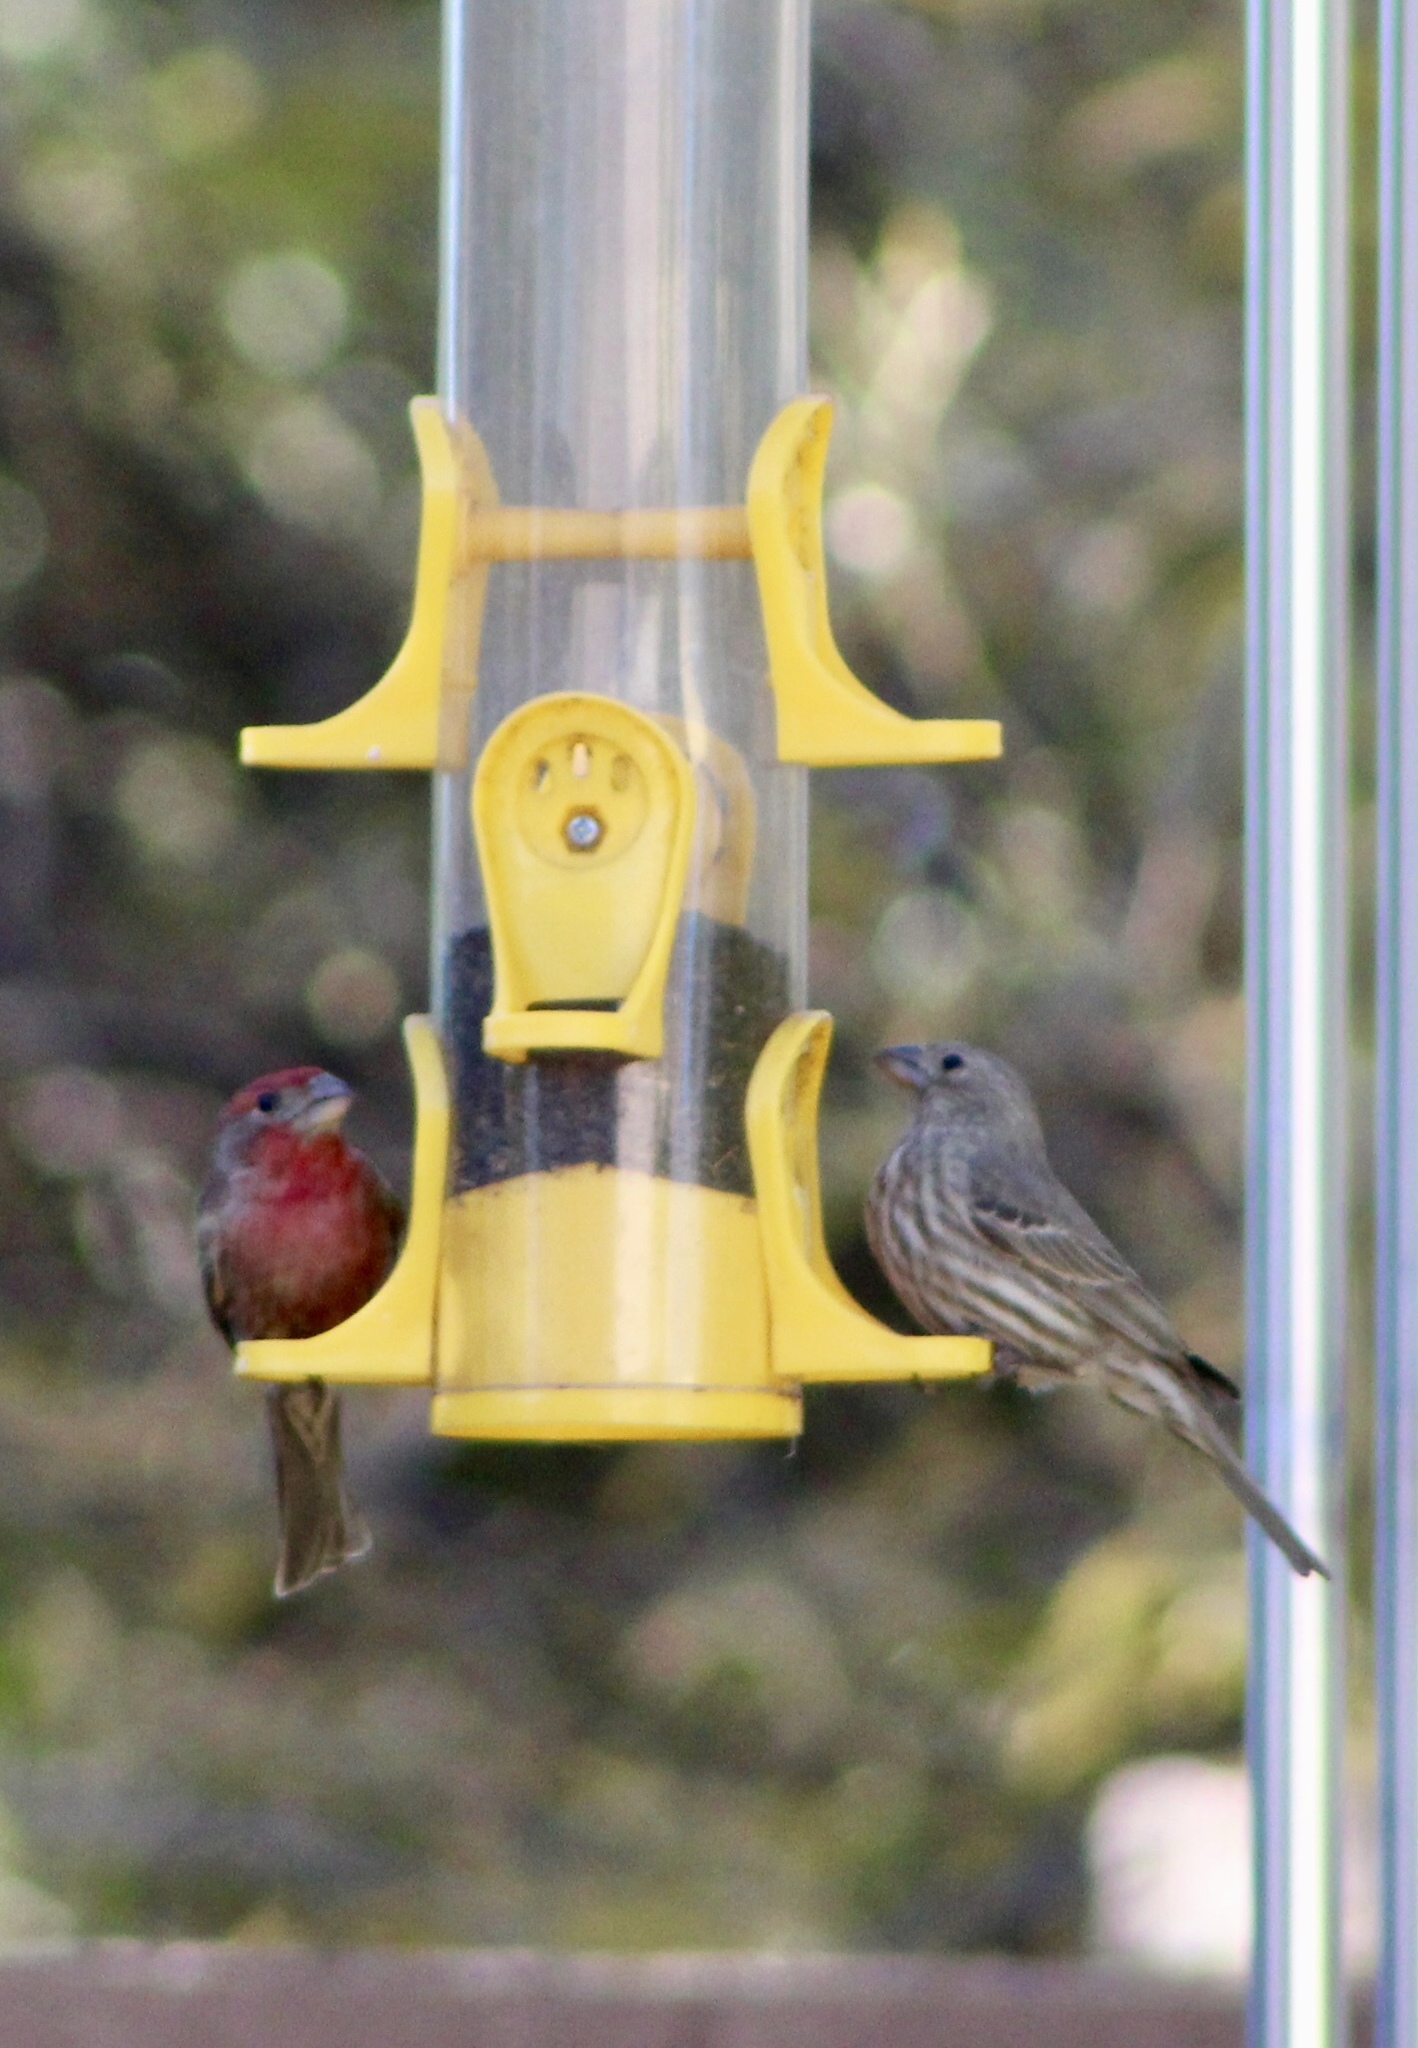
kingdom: Animalia
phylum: Chordata
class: Aves
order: Passeriformes
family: Fringillidae
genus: Haemorhous
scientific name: Haemorhous mexicanus
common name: House finch
